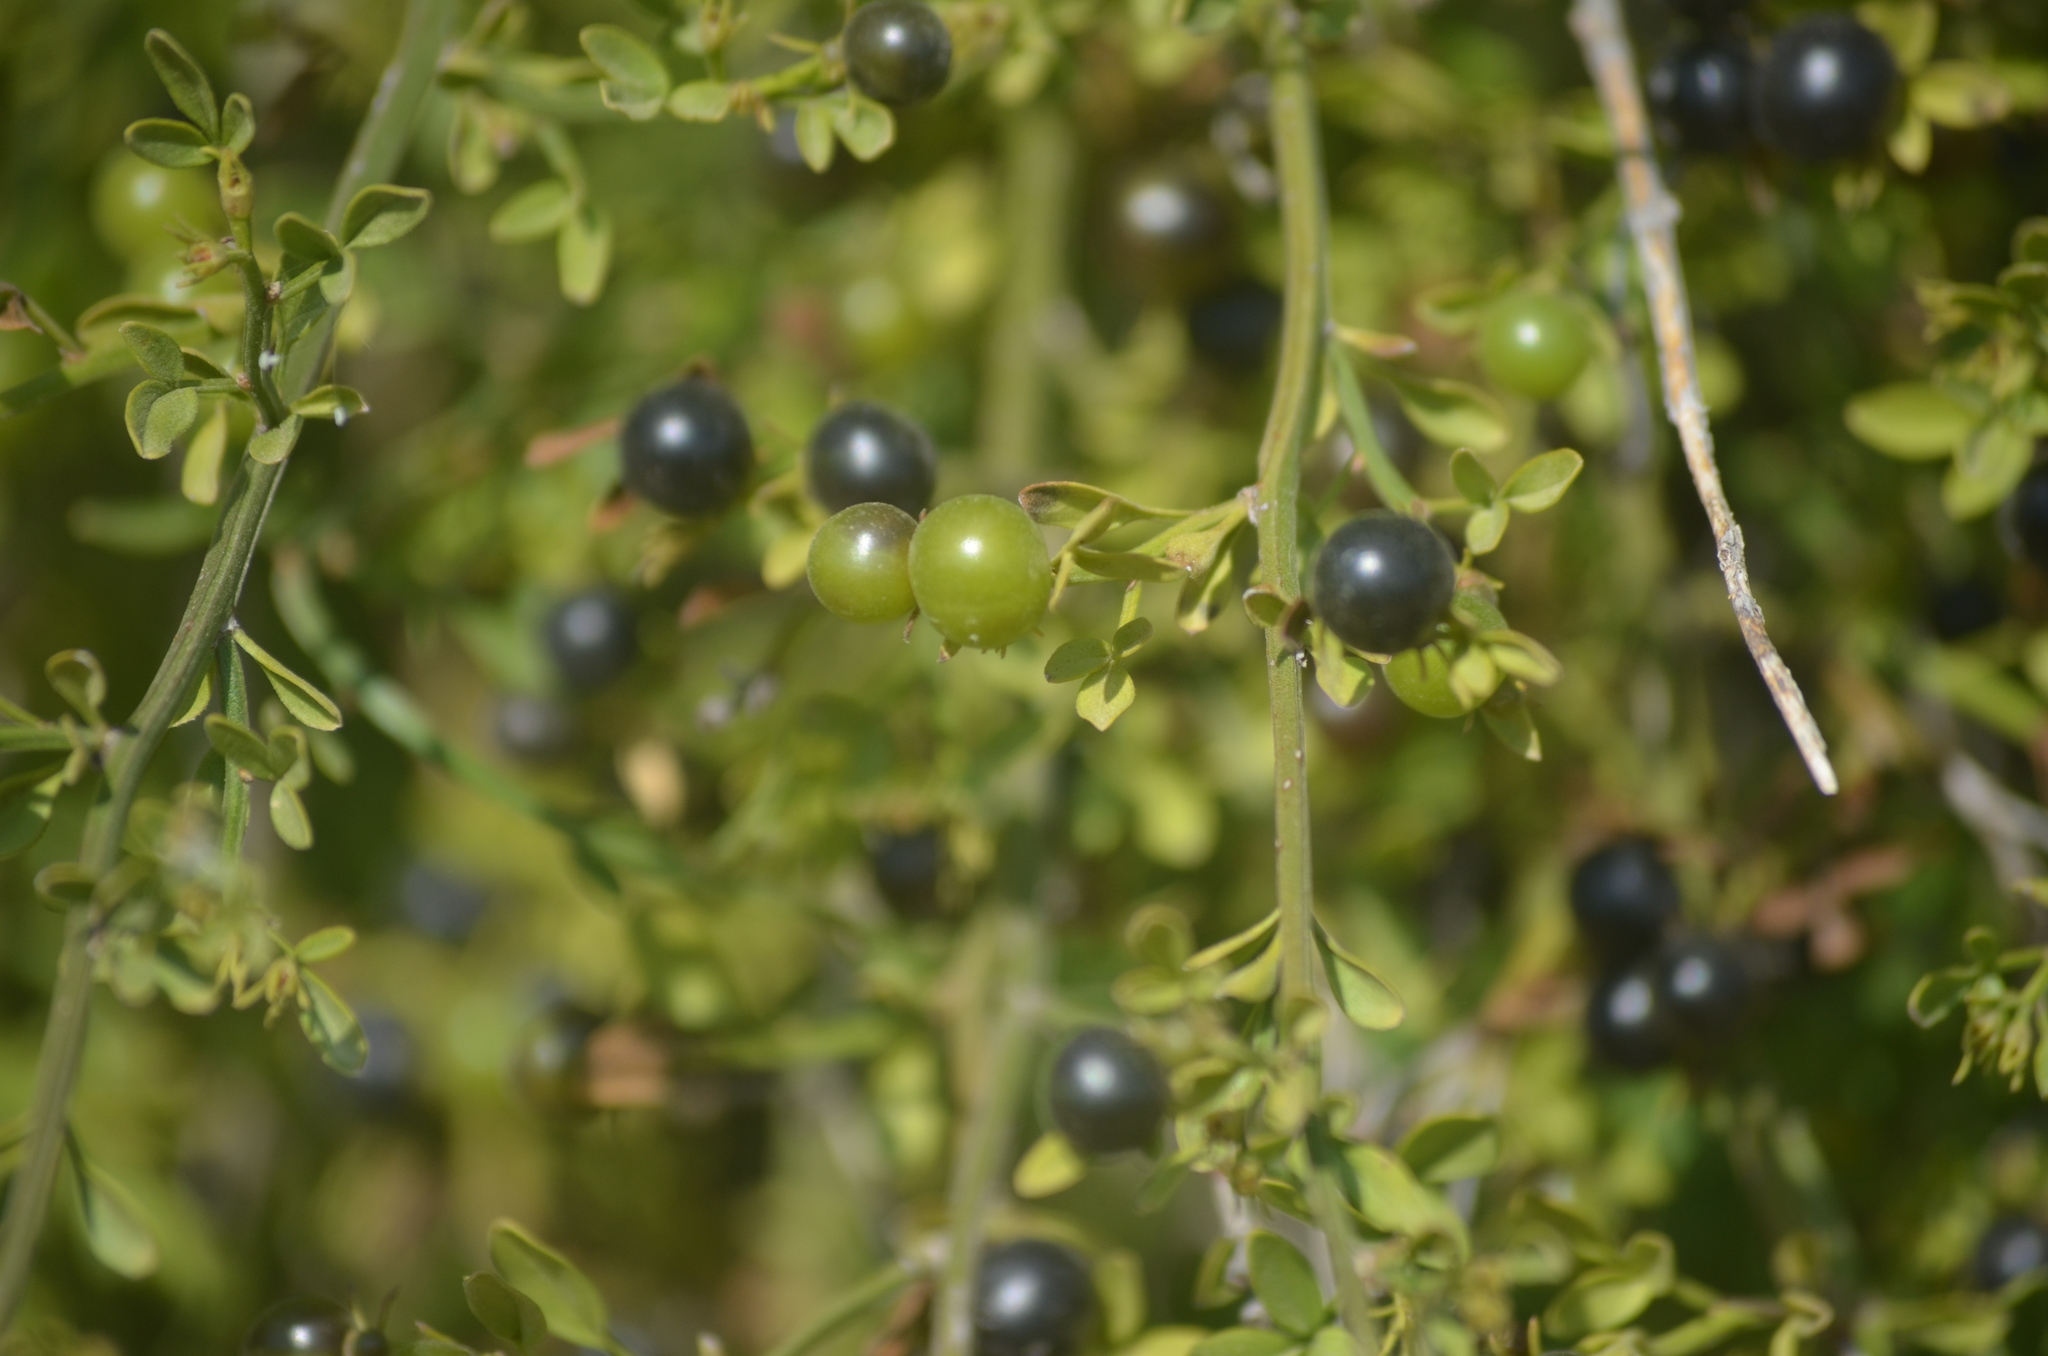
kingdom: Plantae
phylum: Tracheophyta
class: Magnoliopsida
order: Lamiales
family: Oleaceae
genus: Chrysojasminum
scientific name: Chrysojasminum fruticans
